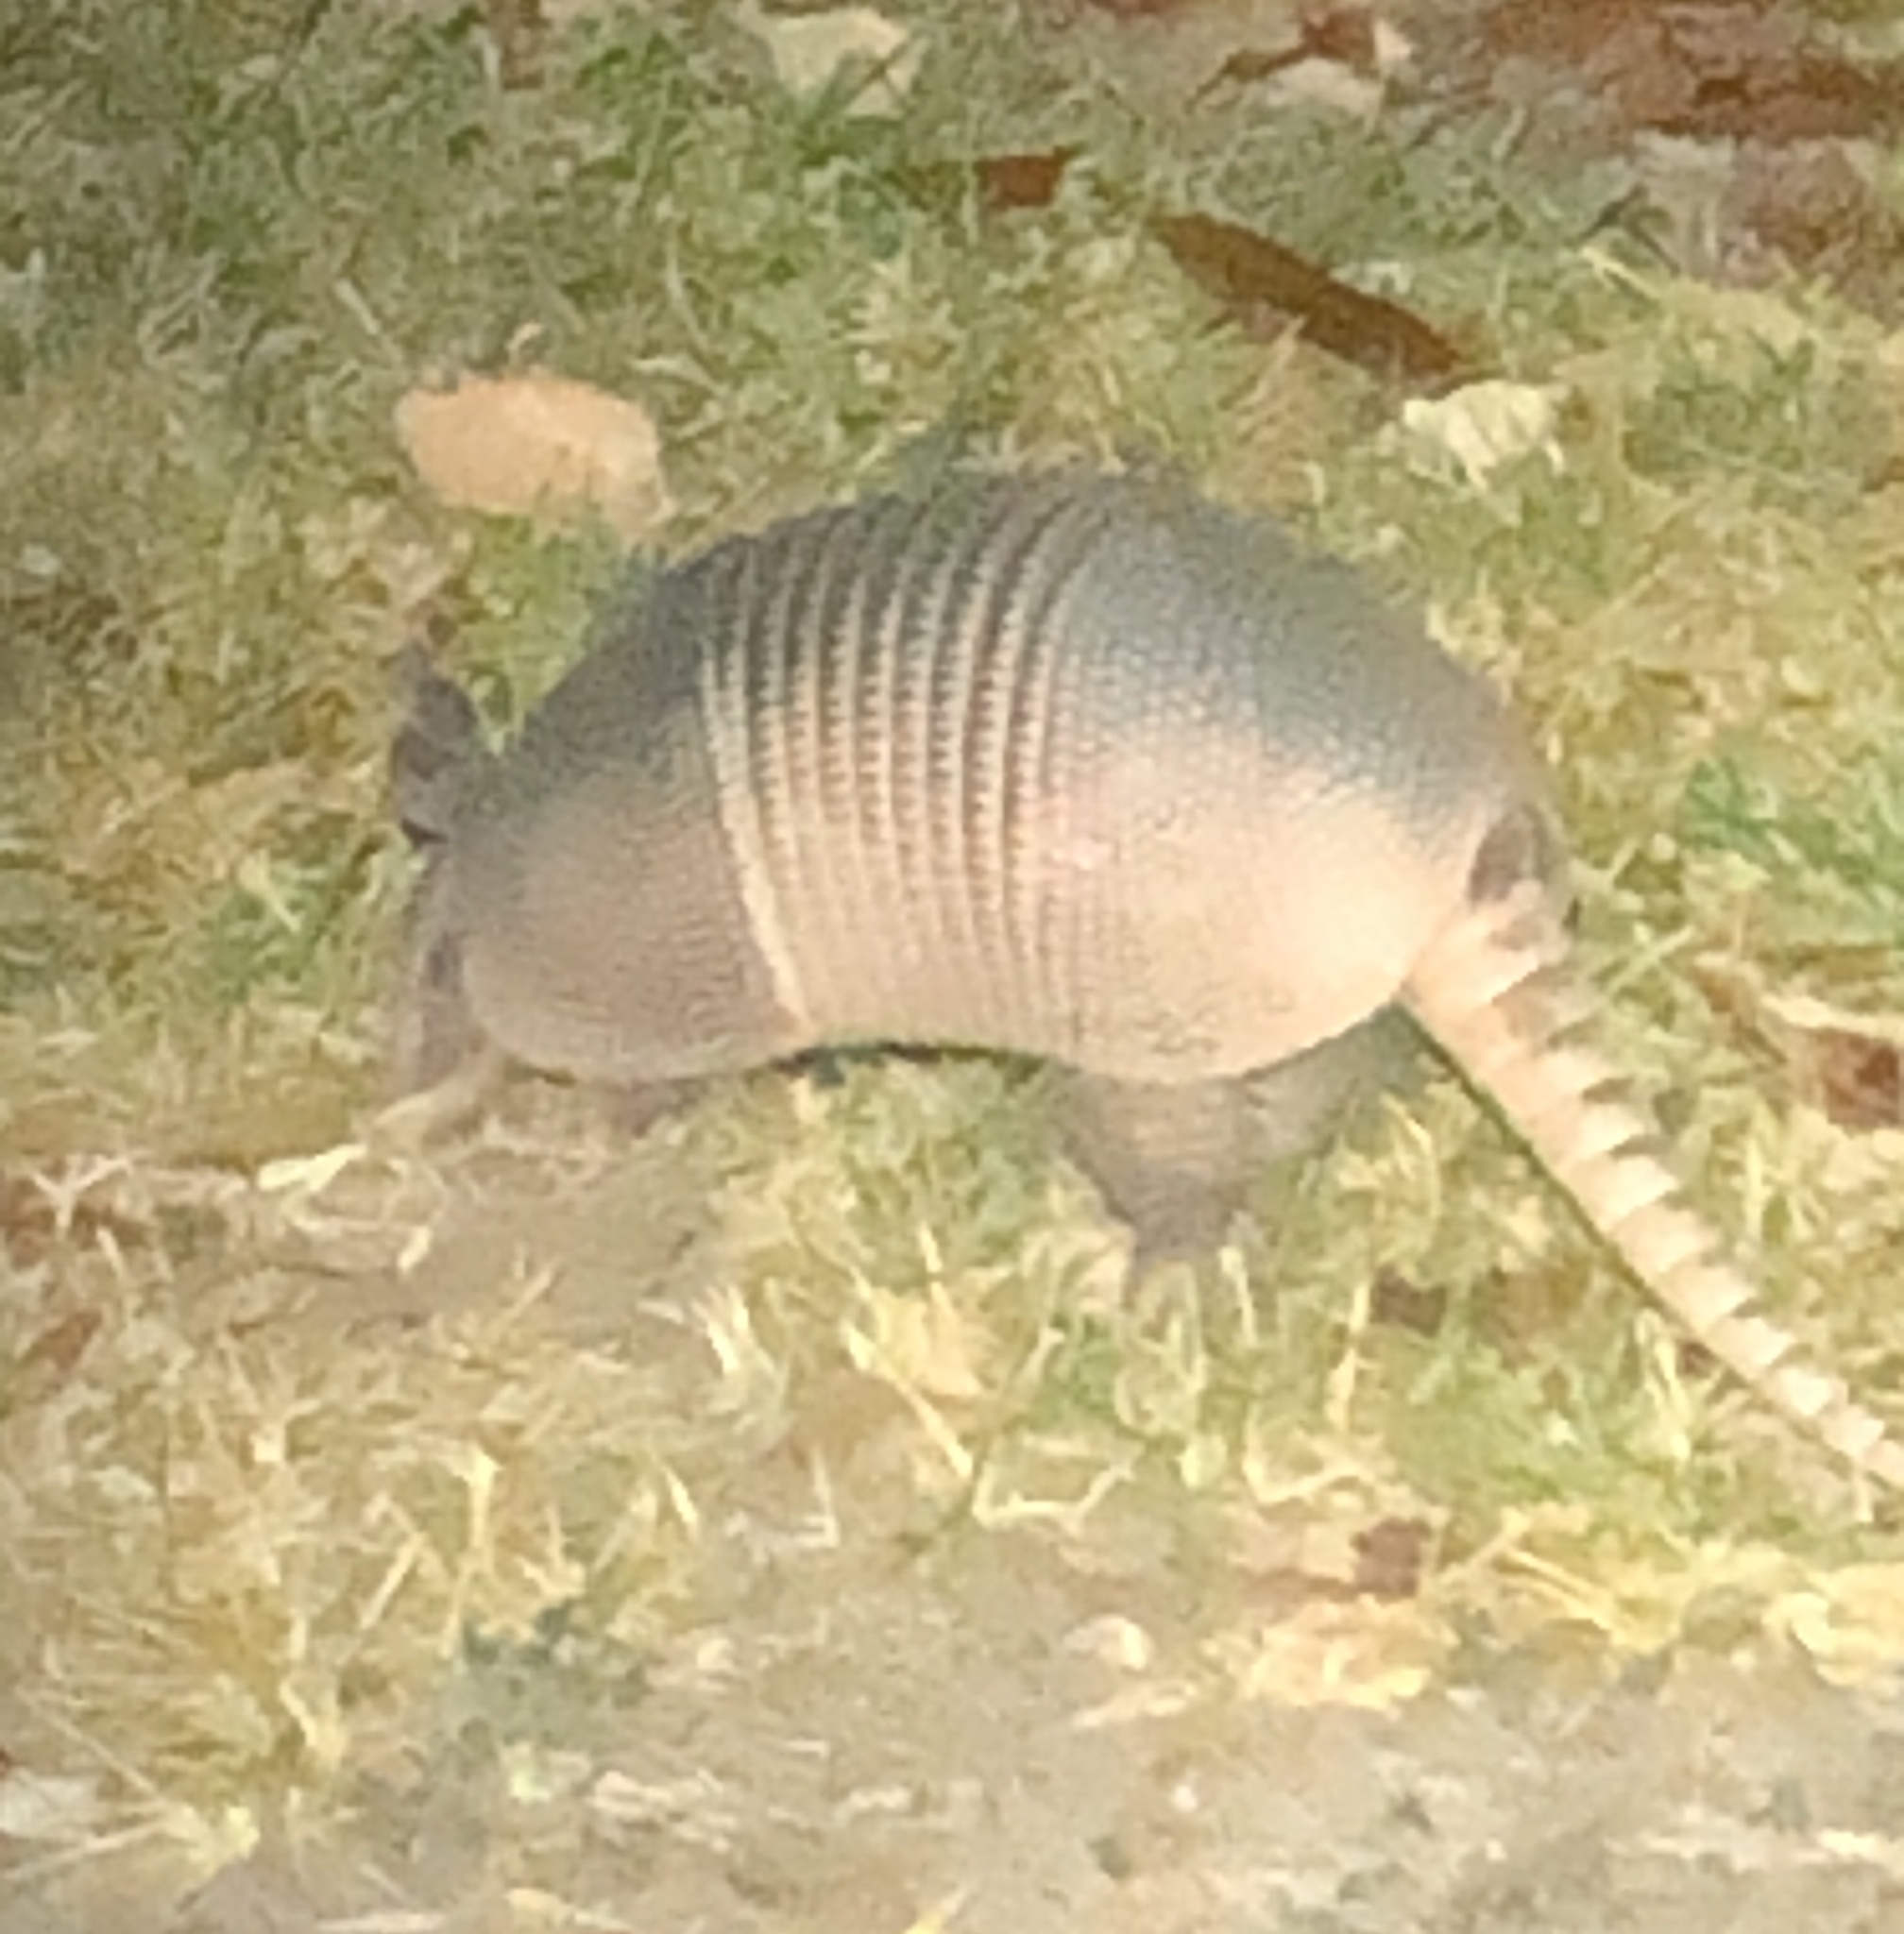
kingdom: Animalia
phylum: Chordata
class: Mammalia
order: Cingulata
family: Dasypodidae
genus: Dasypus
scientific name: Dasypus novemcinctus
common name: Nine-banded armadillo
